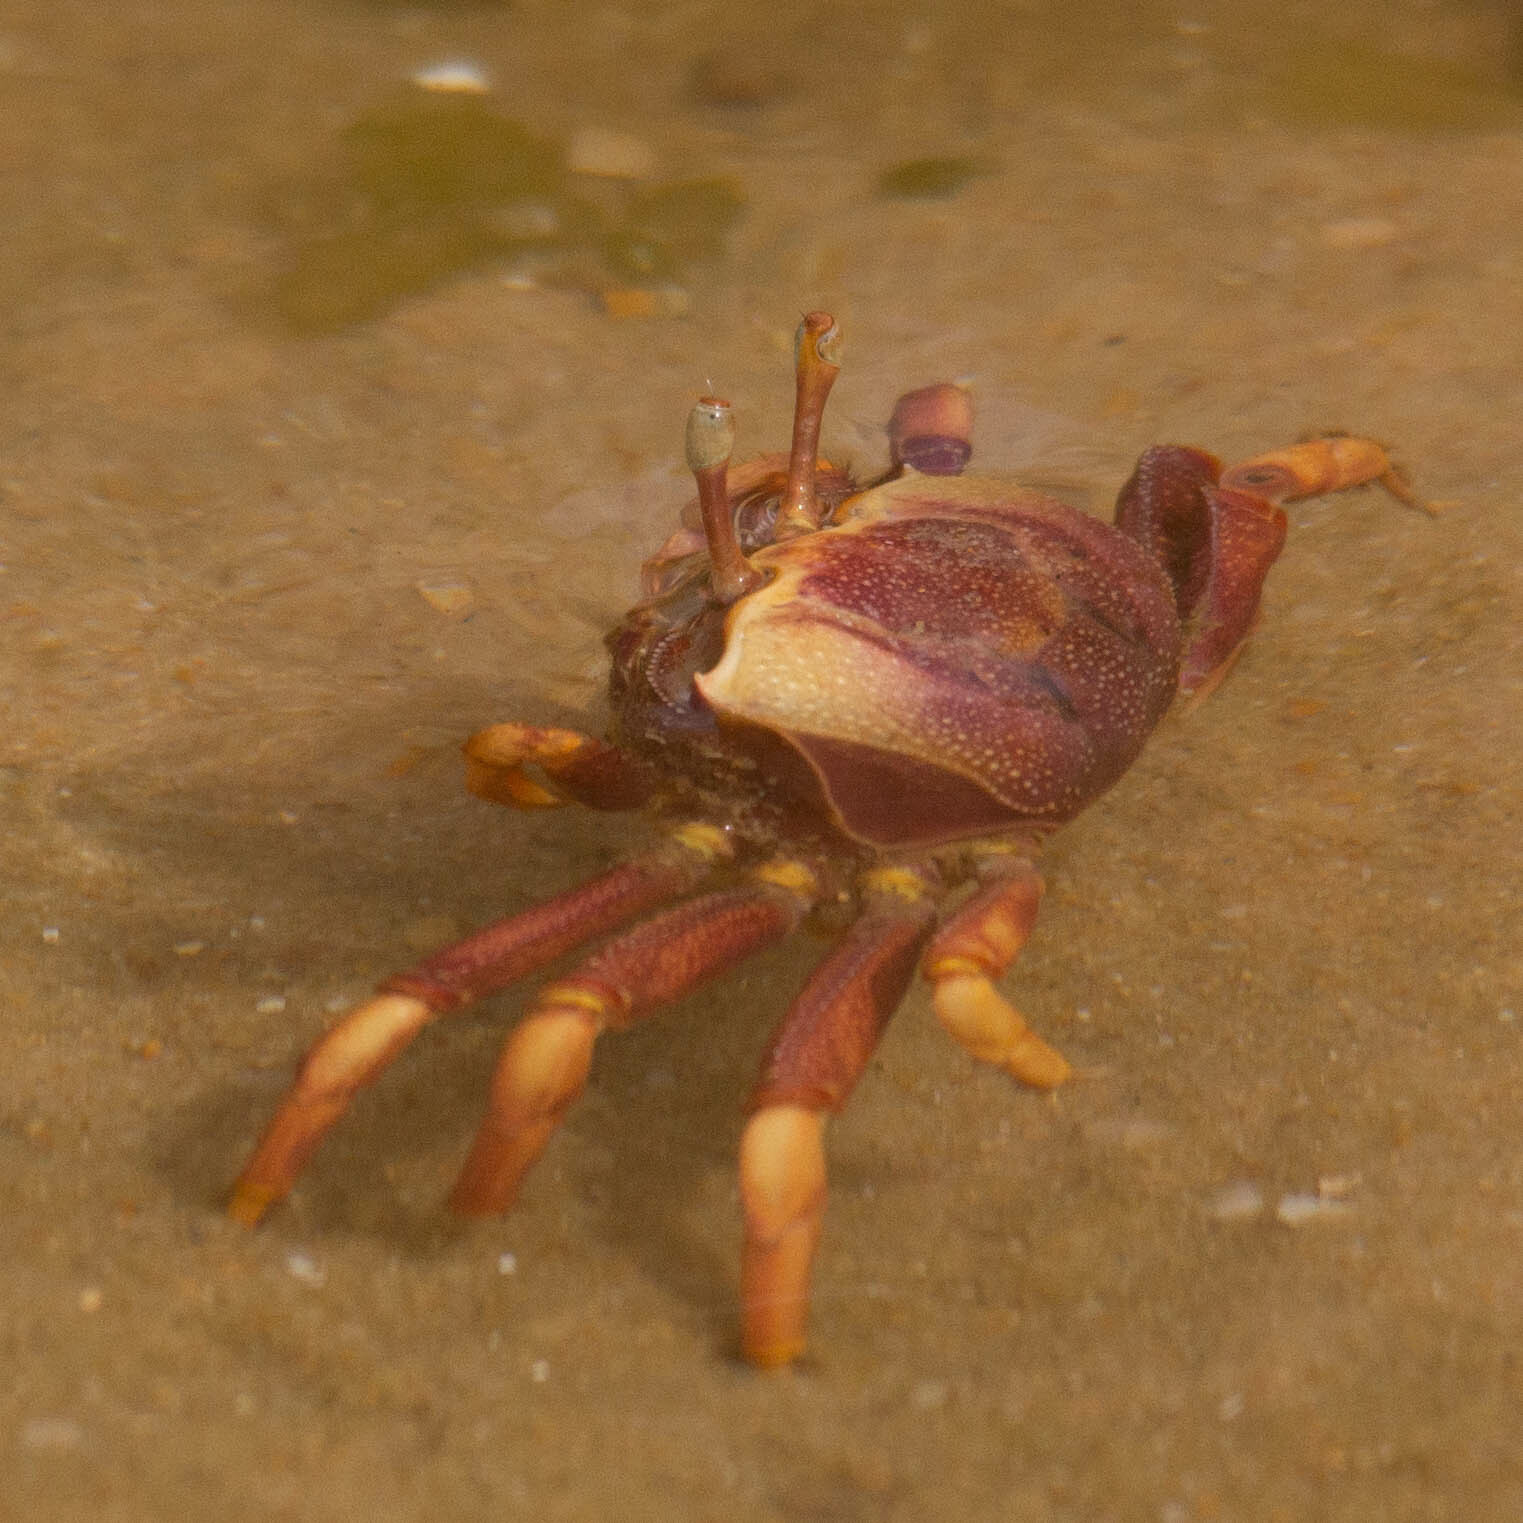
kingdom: Animalia
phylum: Arthropoda
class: Malacostraca
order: Decapoda
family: Ocypodidae
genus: Afruca
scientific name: Afruca tangeri
